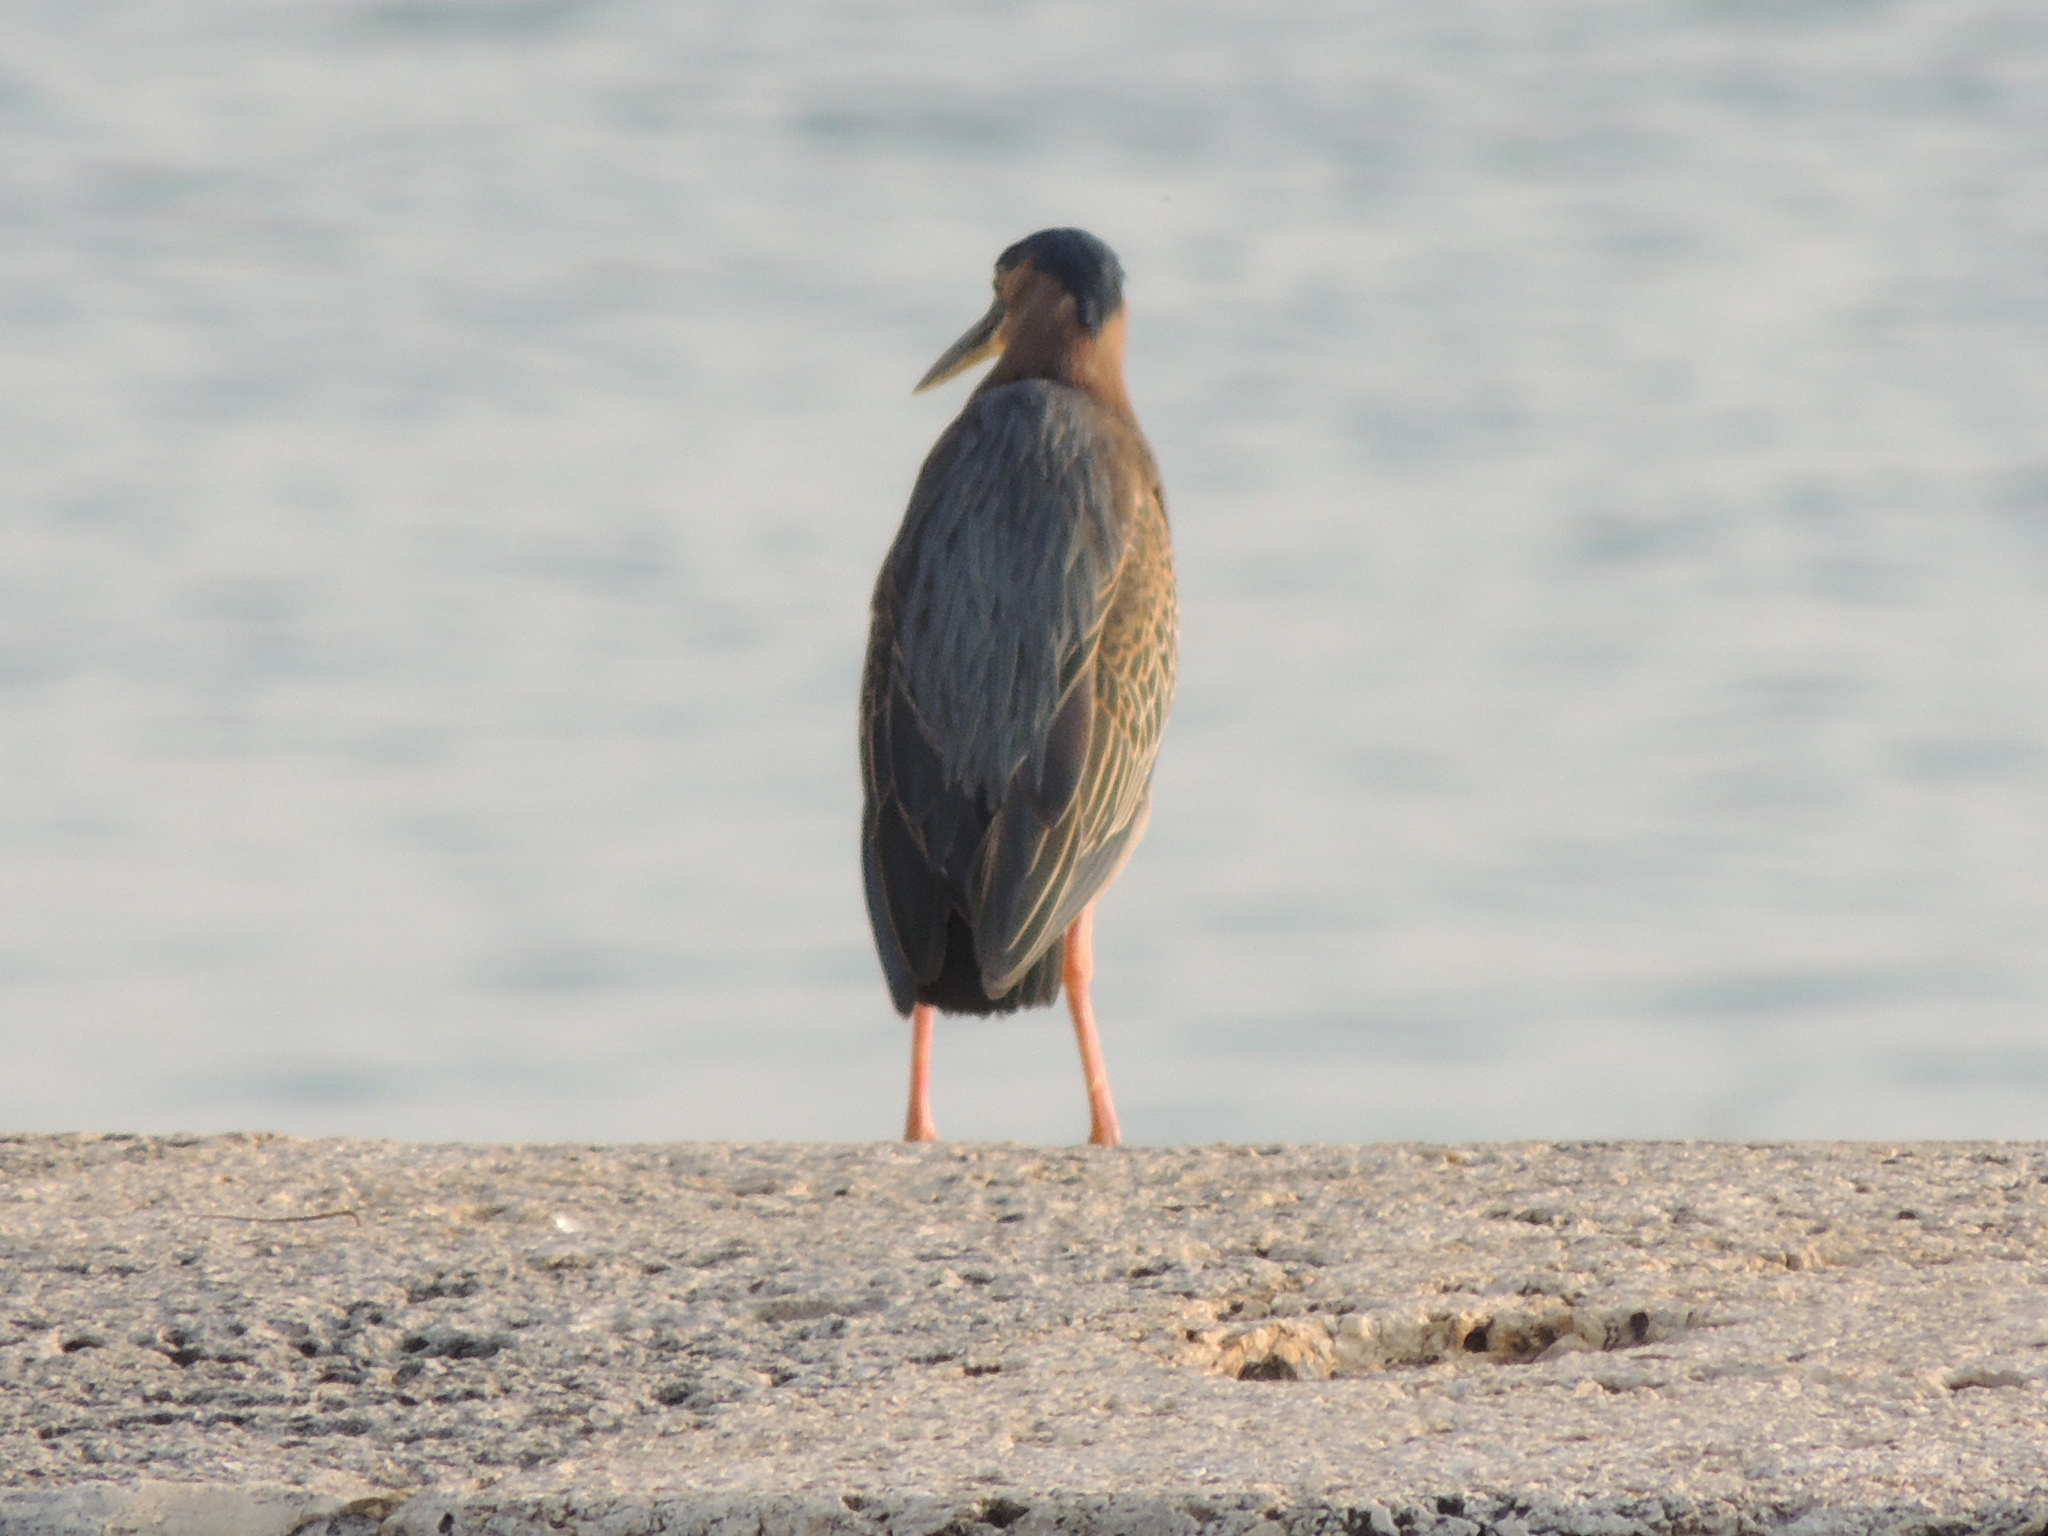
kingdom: Animalia
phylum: Chordata
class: Aves
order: Pelecaniformes
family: Ardeidae
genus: Butorides
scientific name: Butorides virescens
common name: Green heron
